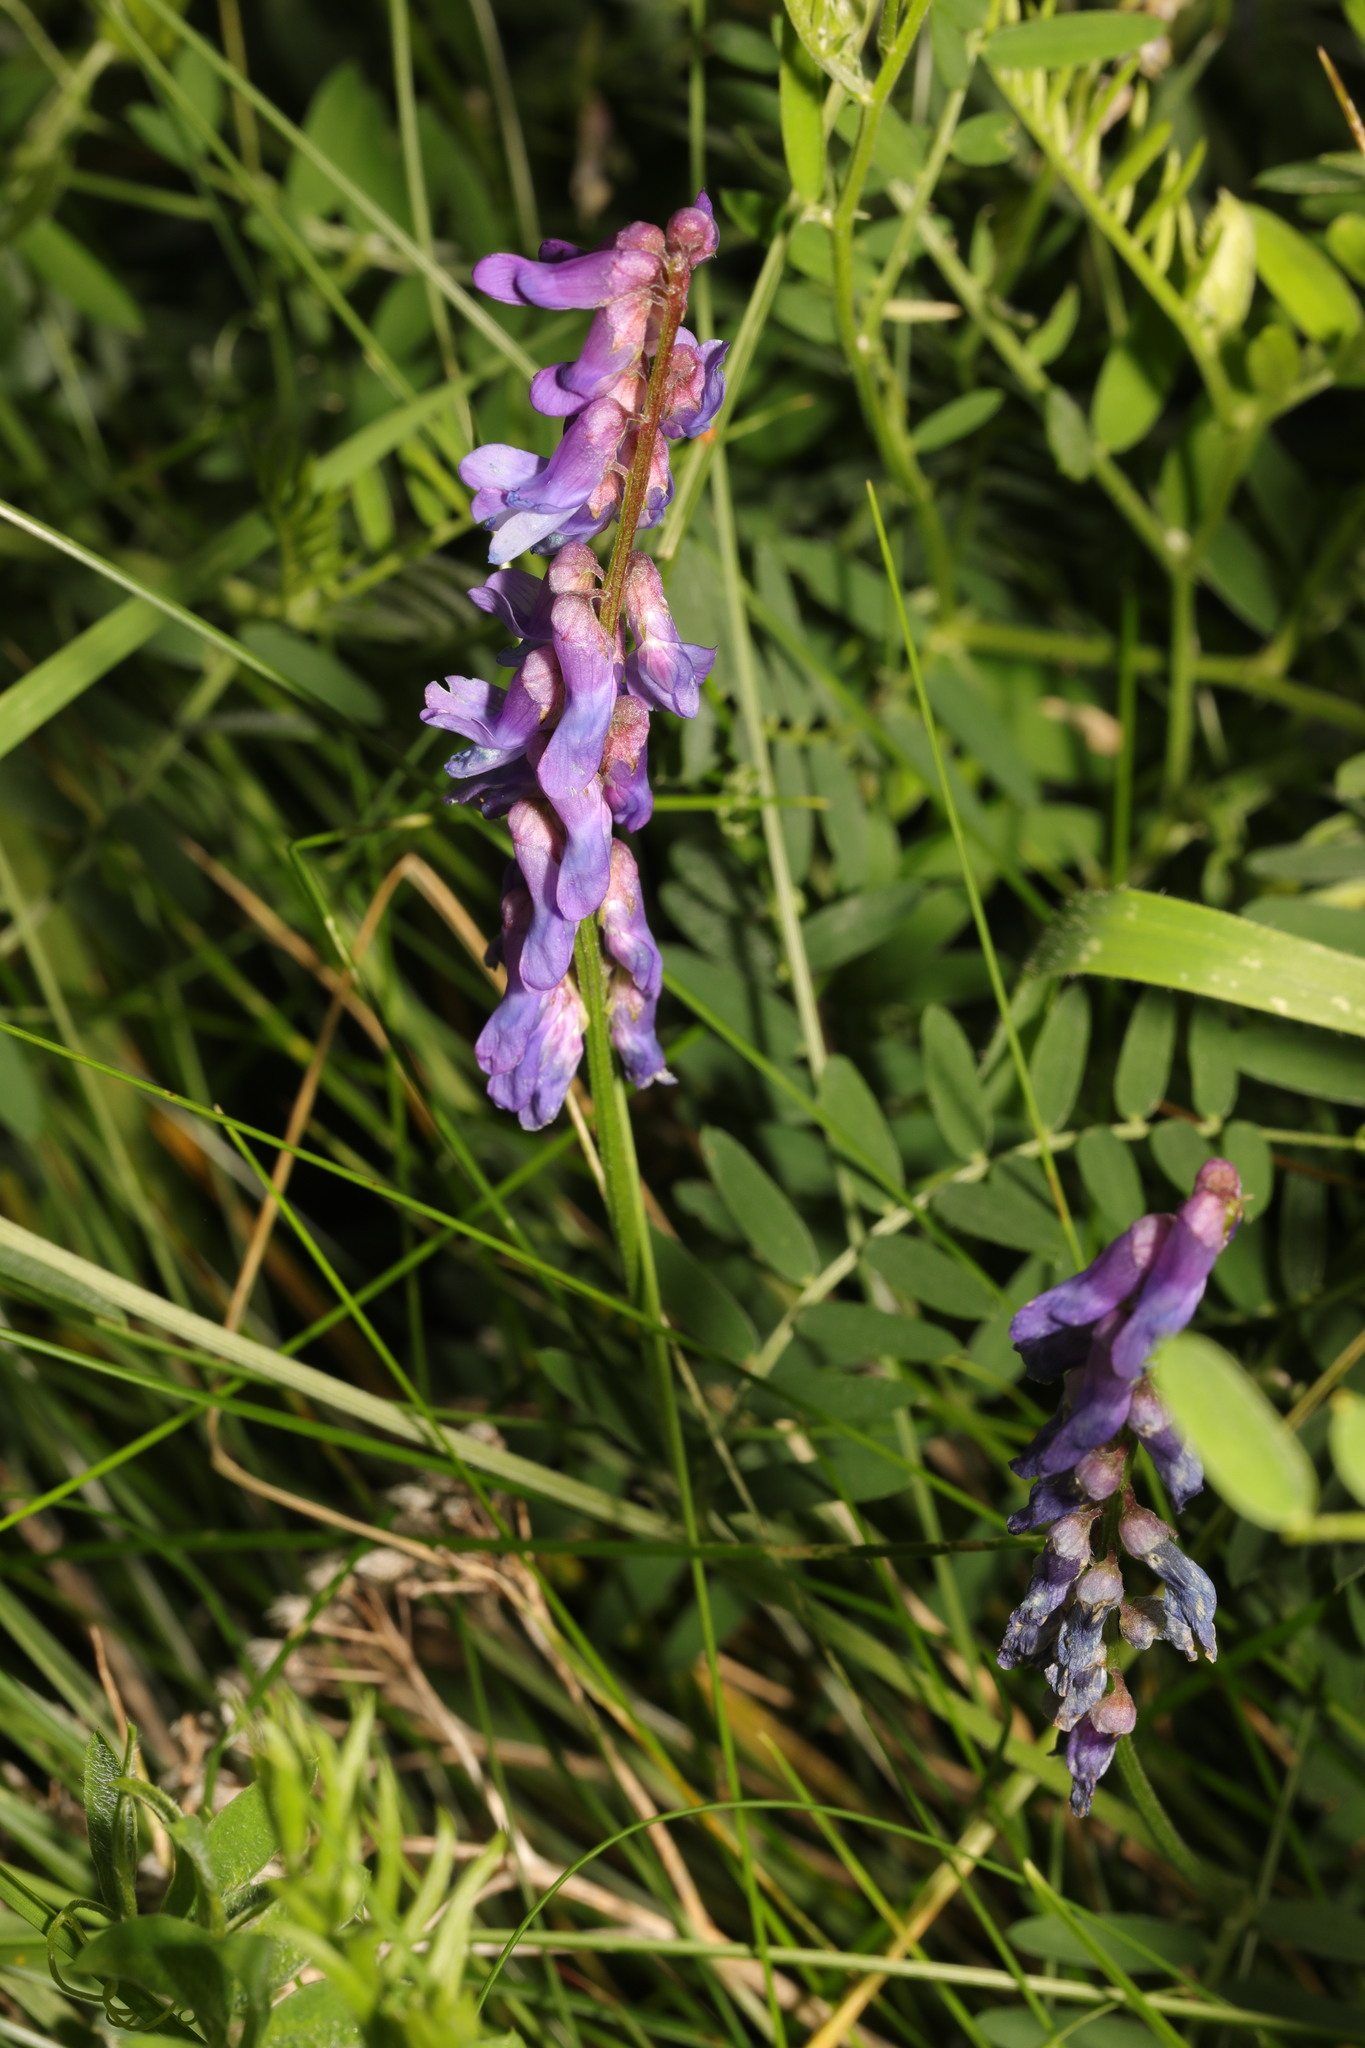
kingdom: Plantae
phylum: Tracheophyta
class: Magnoliopsida
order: Fabales
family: Fabaceae
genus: Vicia
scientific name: Vicia cracca
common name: Bird vetch
